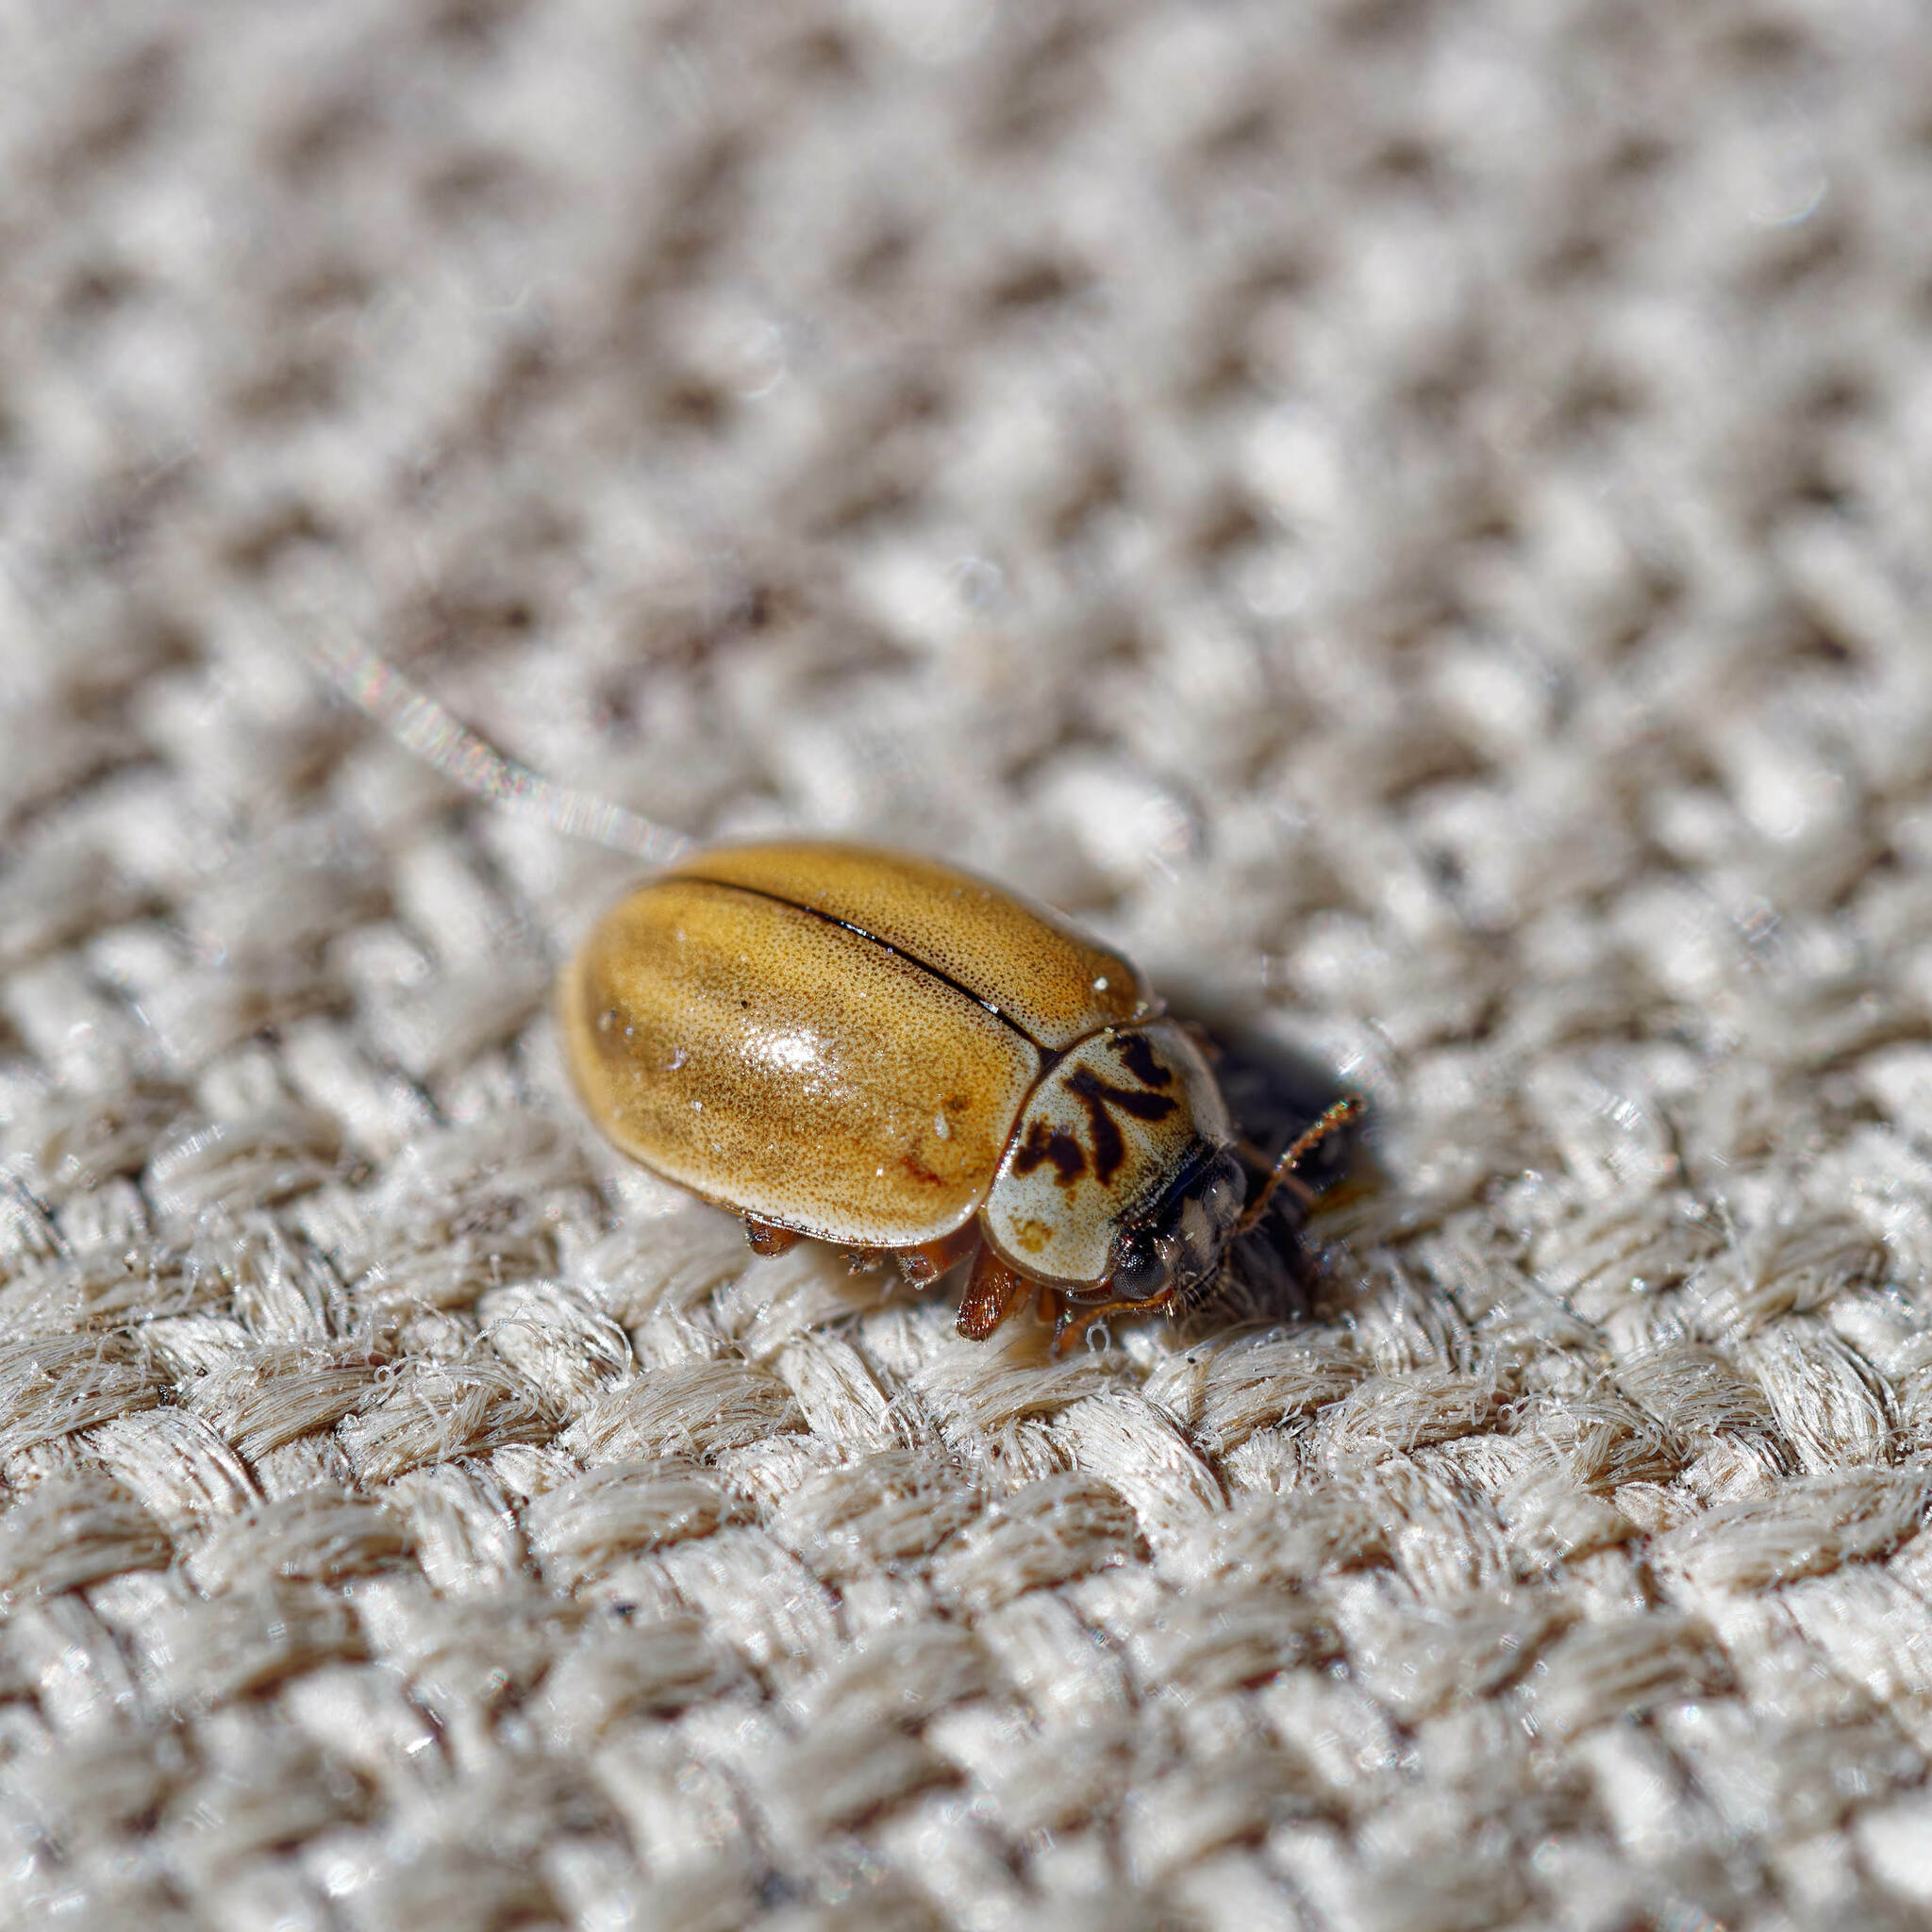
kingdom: Animalia
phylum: Arthropoda
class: Insecta
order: Coleoptera
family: Coccinellidae
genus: Aphidecta
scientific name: Aphidecta obliterata
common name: Larch ladybird
